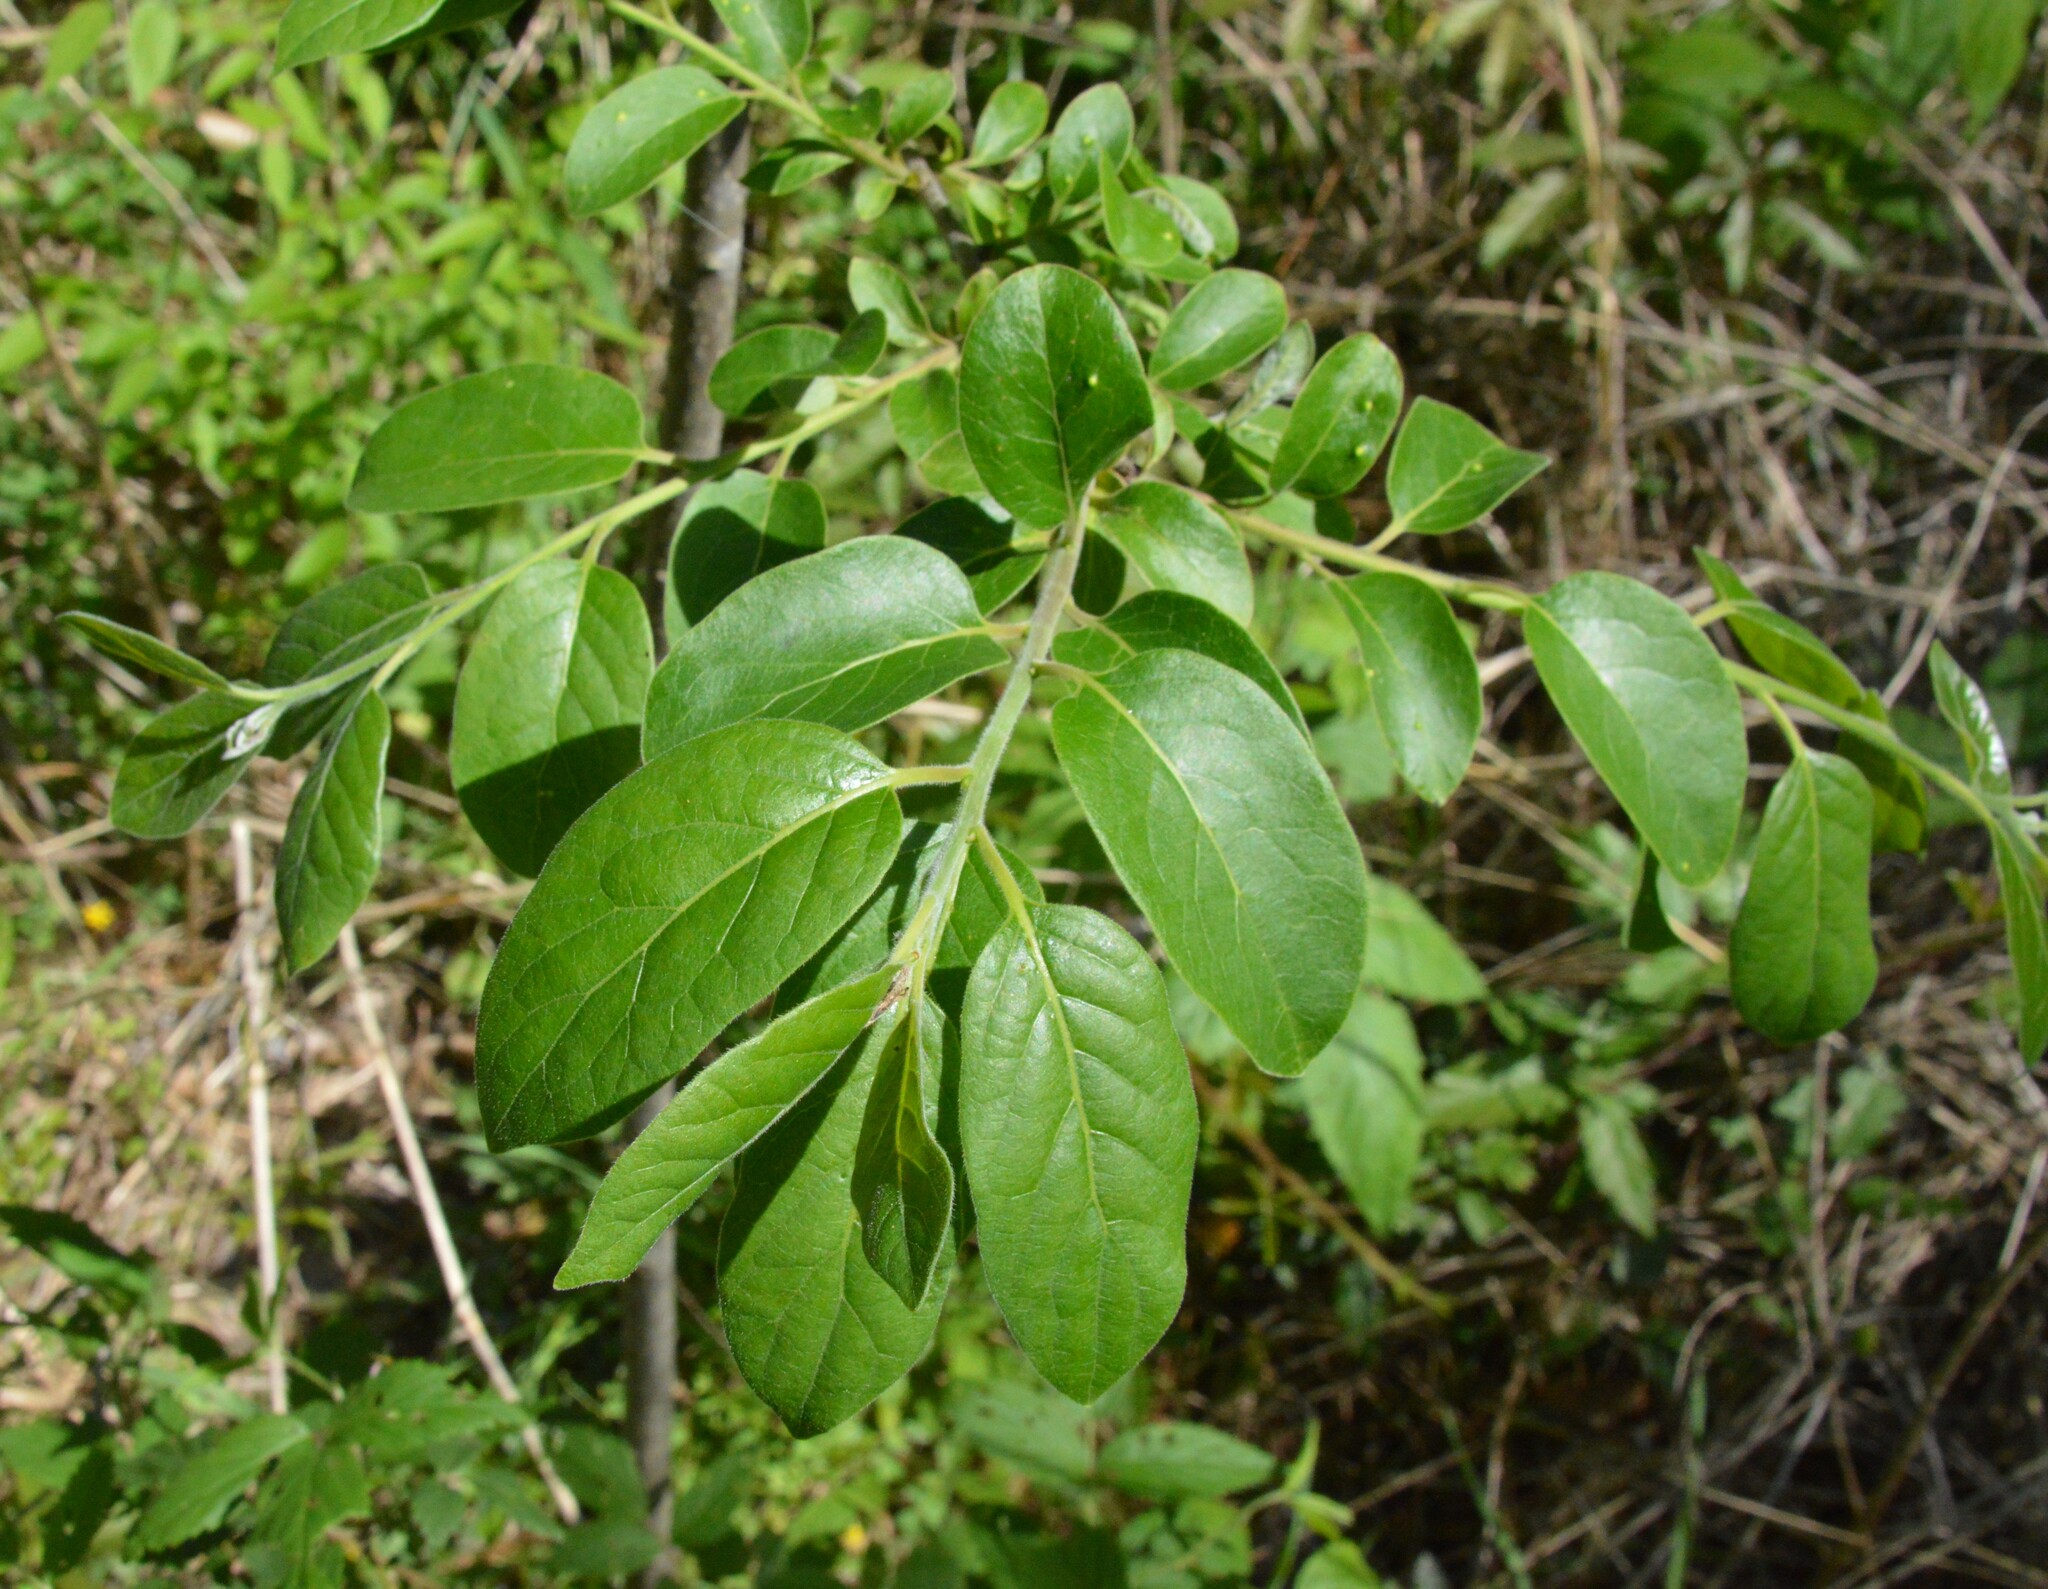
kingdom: Plantae
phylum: Tracheophyta
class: Magnoliopsida
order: Ericales
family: Ebenaceae
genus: Diospyros
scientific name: Diospyros virginiana
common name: Persimmon
